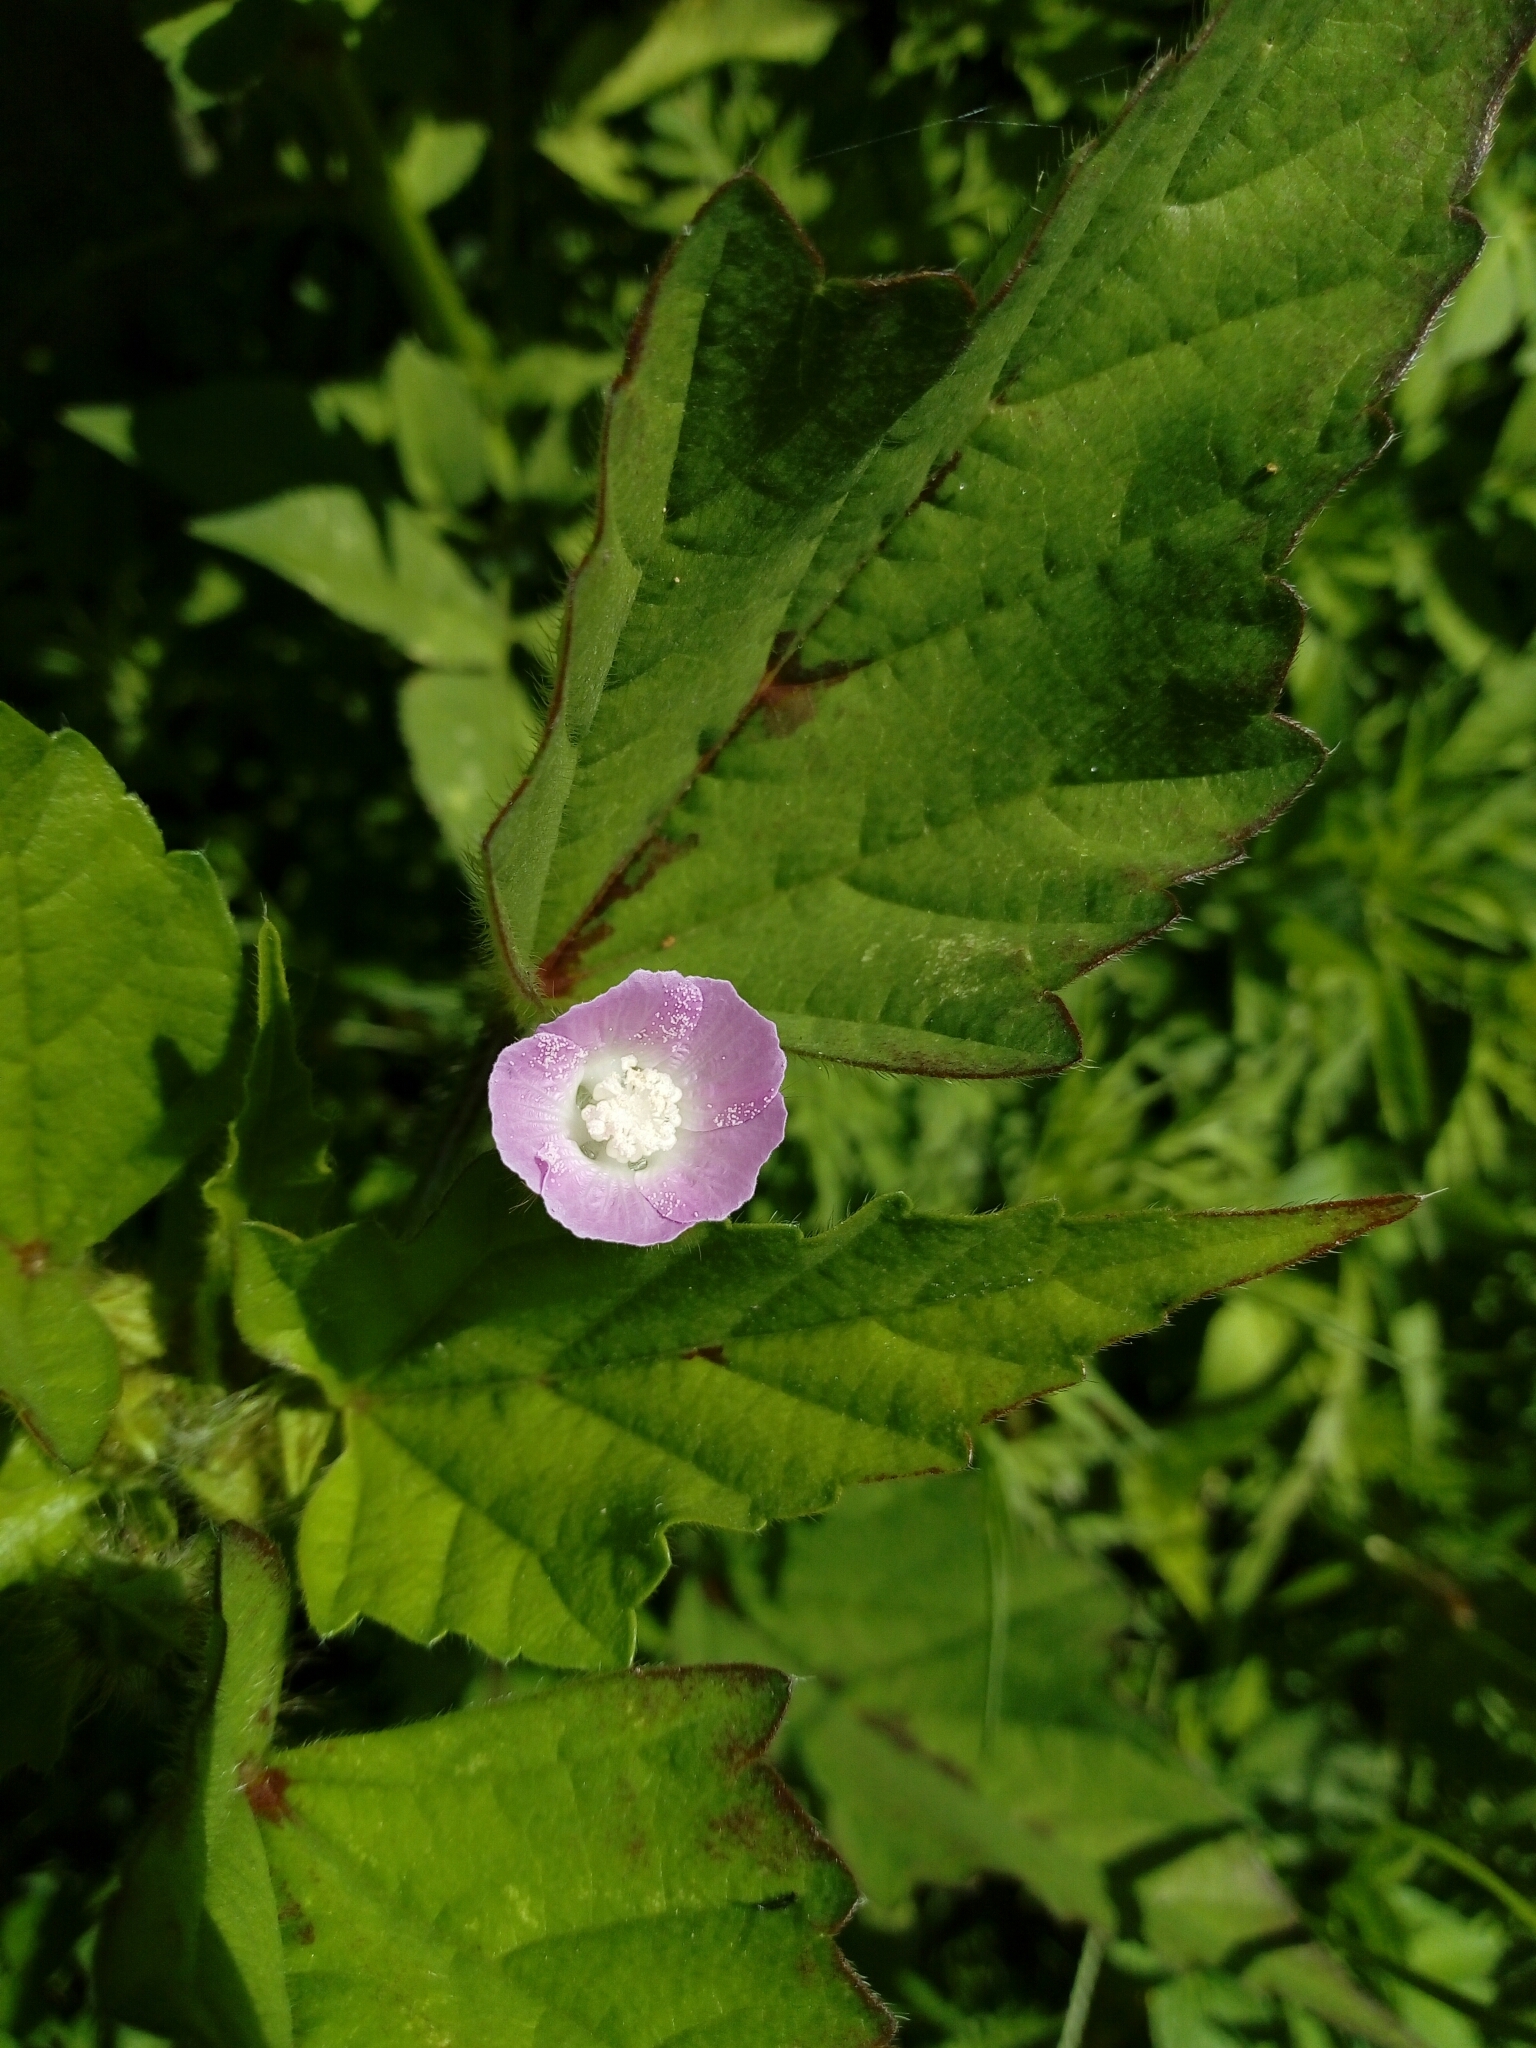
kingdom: Plantae
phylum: Tracheophyta
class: Magnoliopsida
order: Malvales
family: Malvaceae
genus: Anoda
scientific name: Anoda acerifolia
